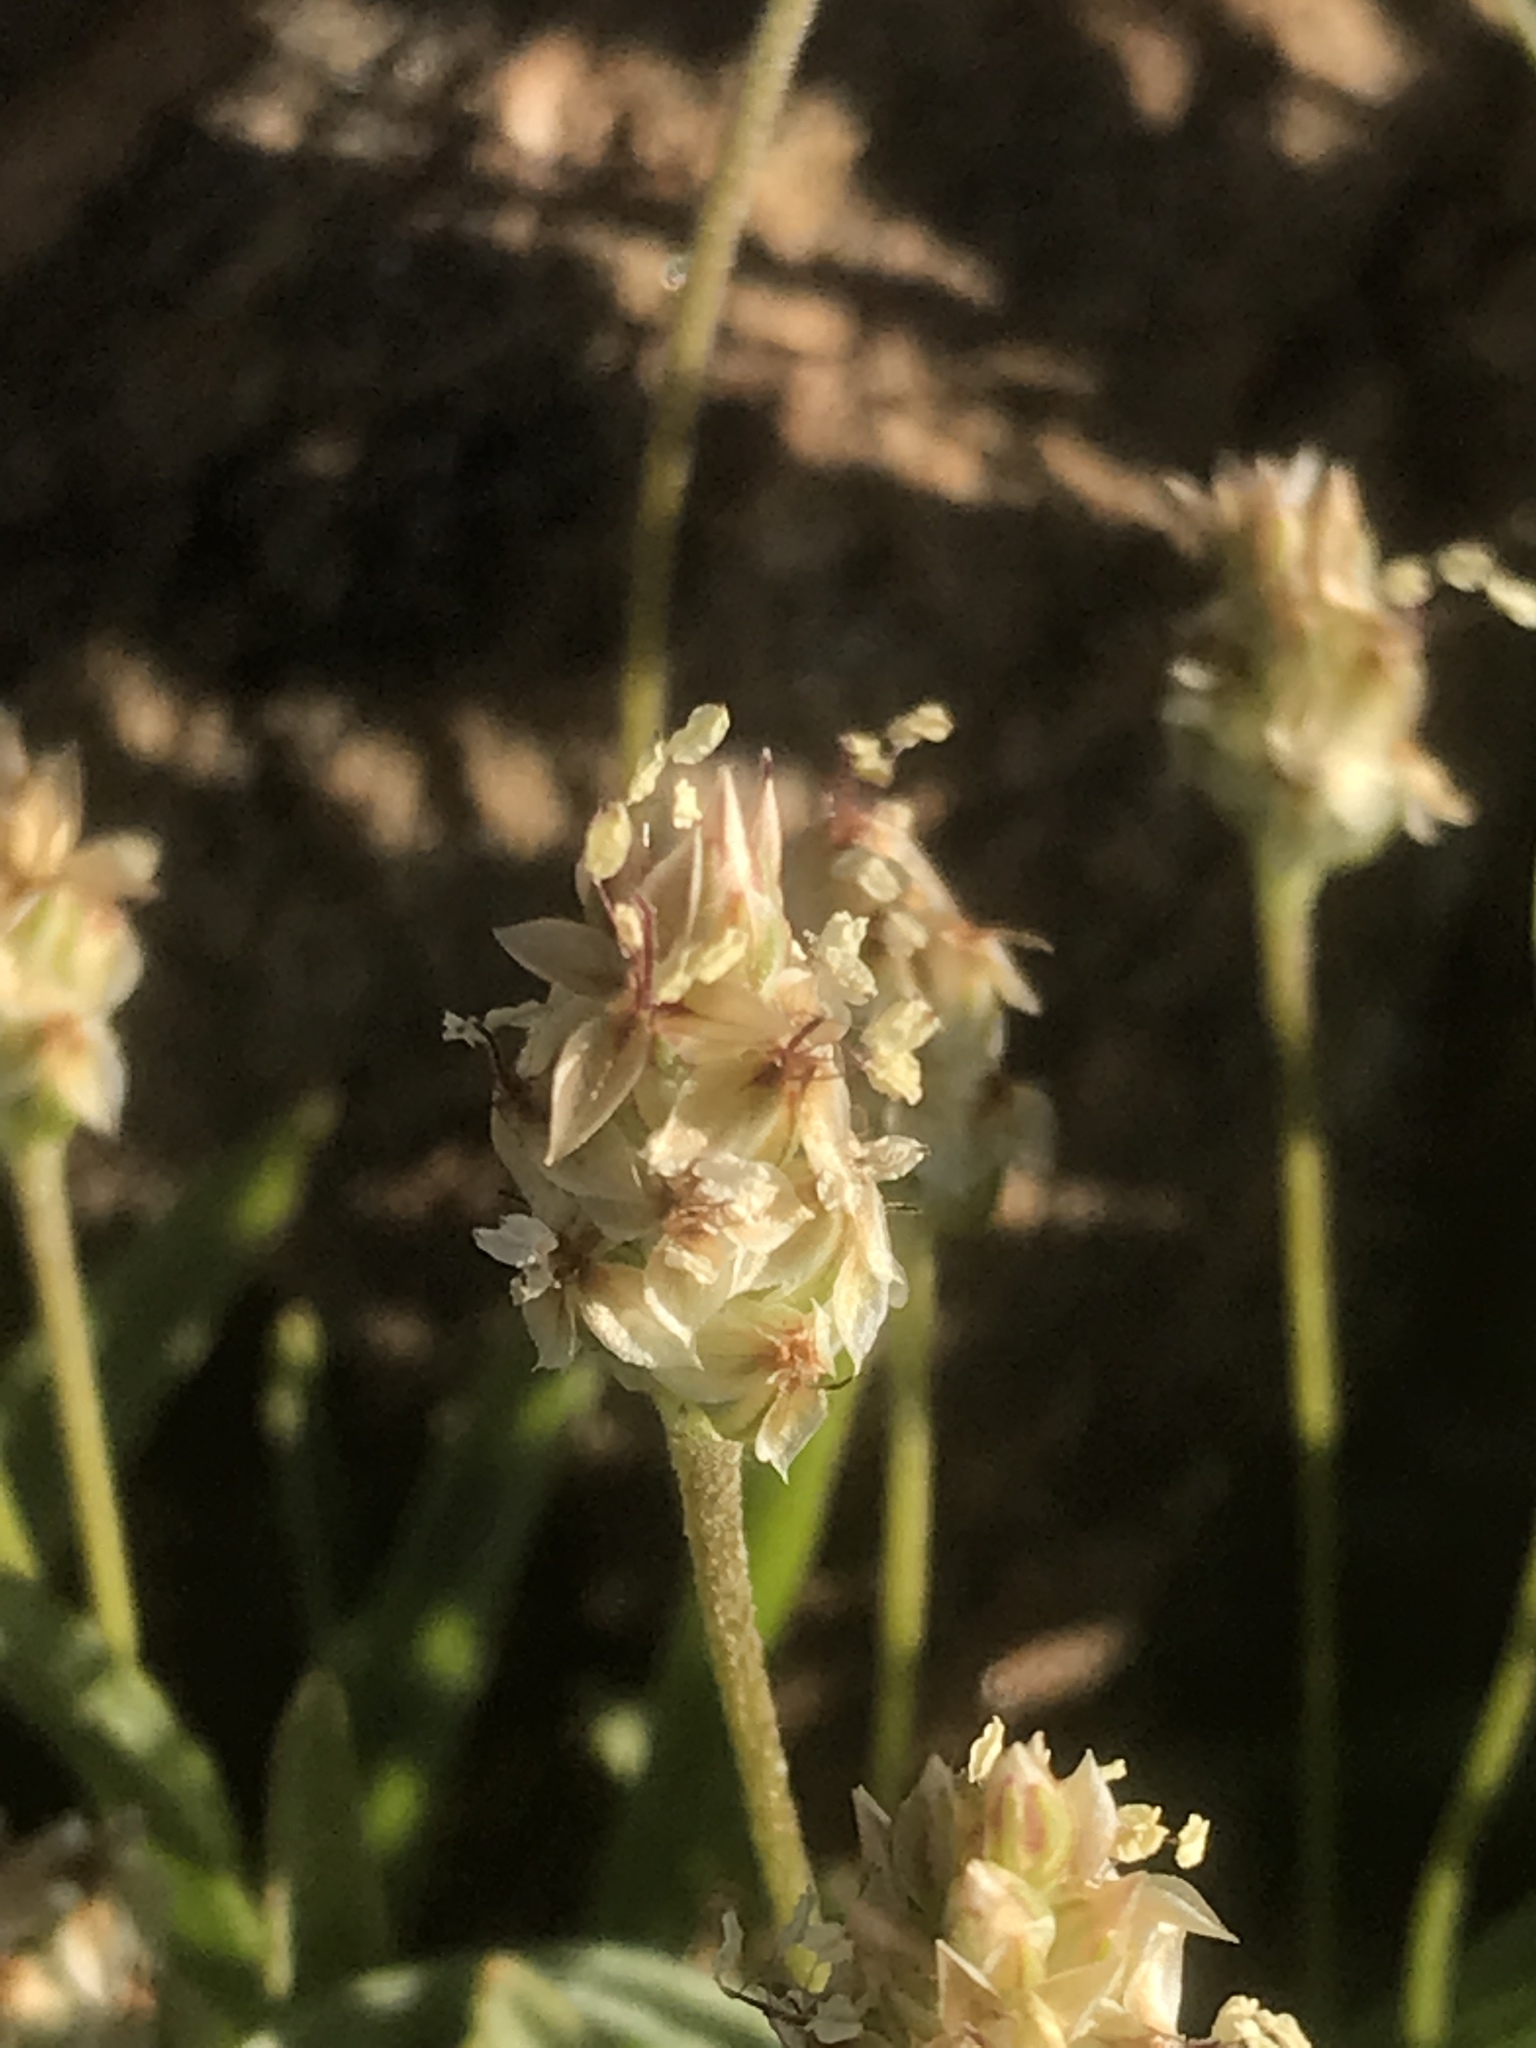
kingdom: Plantae
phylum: Tracheophyta
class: Magnoliopsida
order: Lamiales
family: Plantaginaceae
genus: Plantago
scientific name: Plantago ovata
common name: Blond plantain
